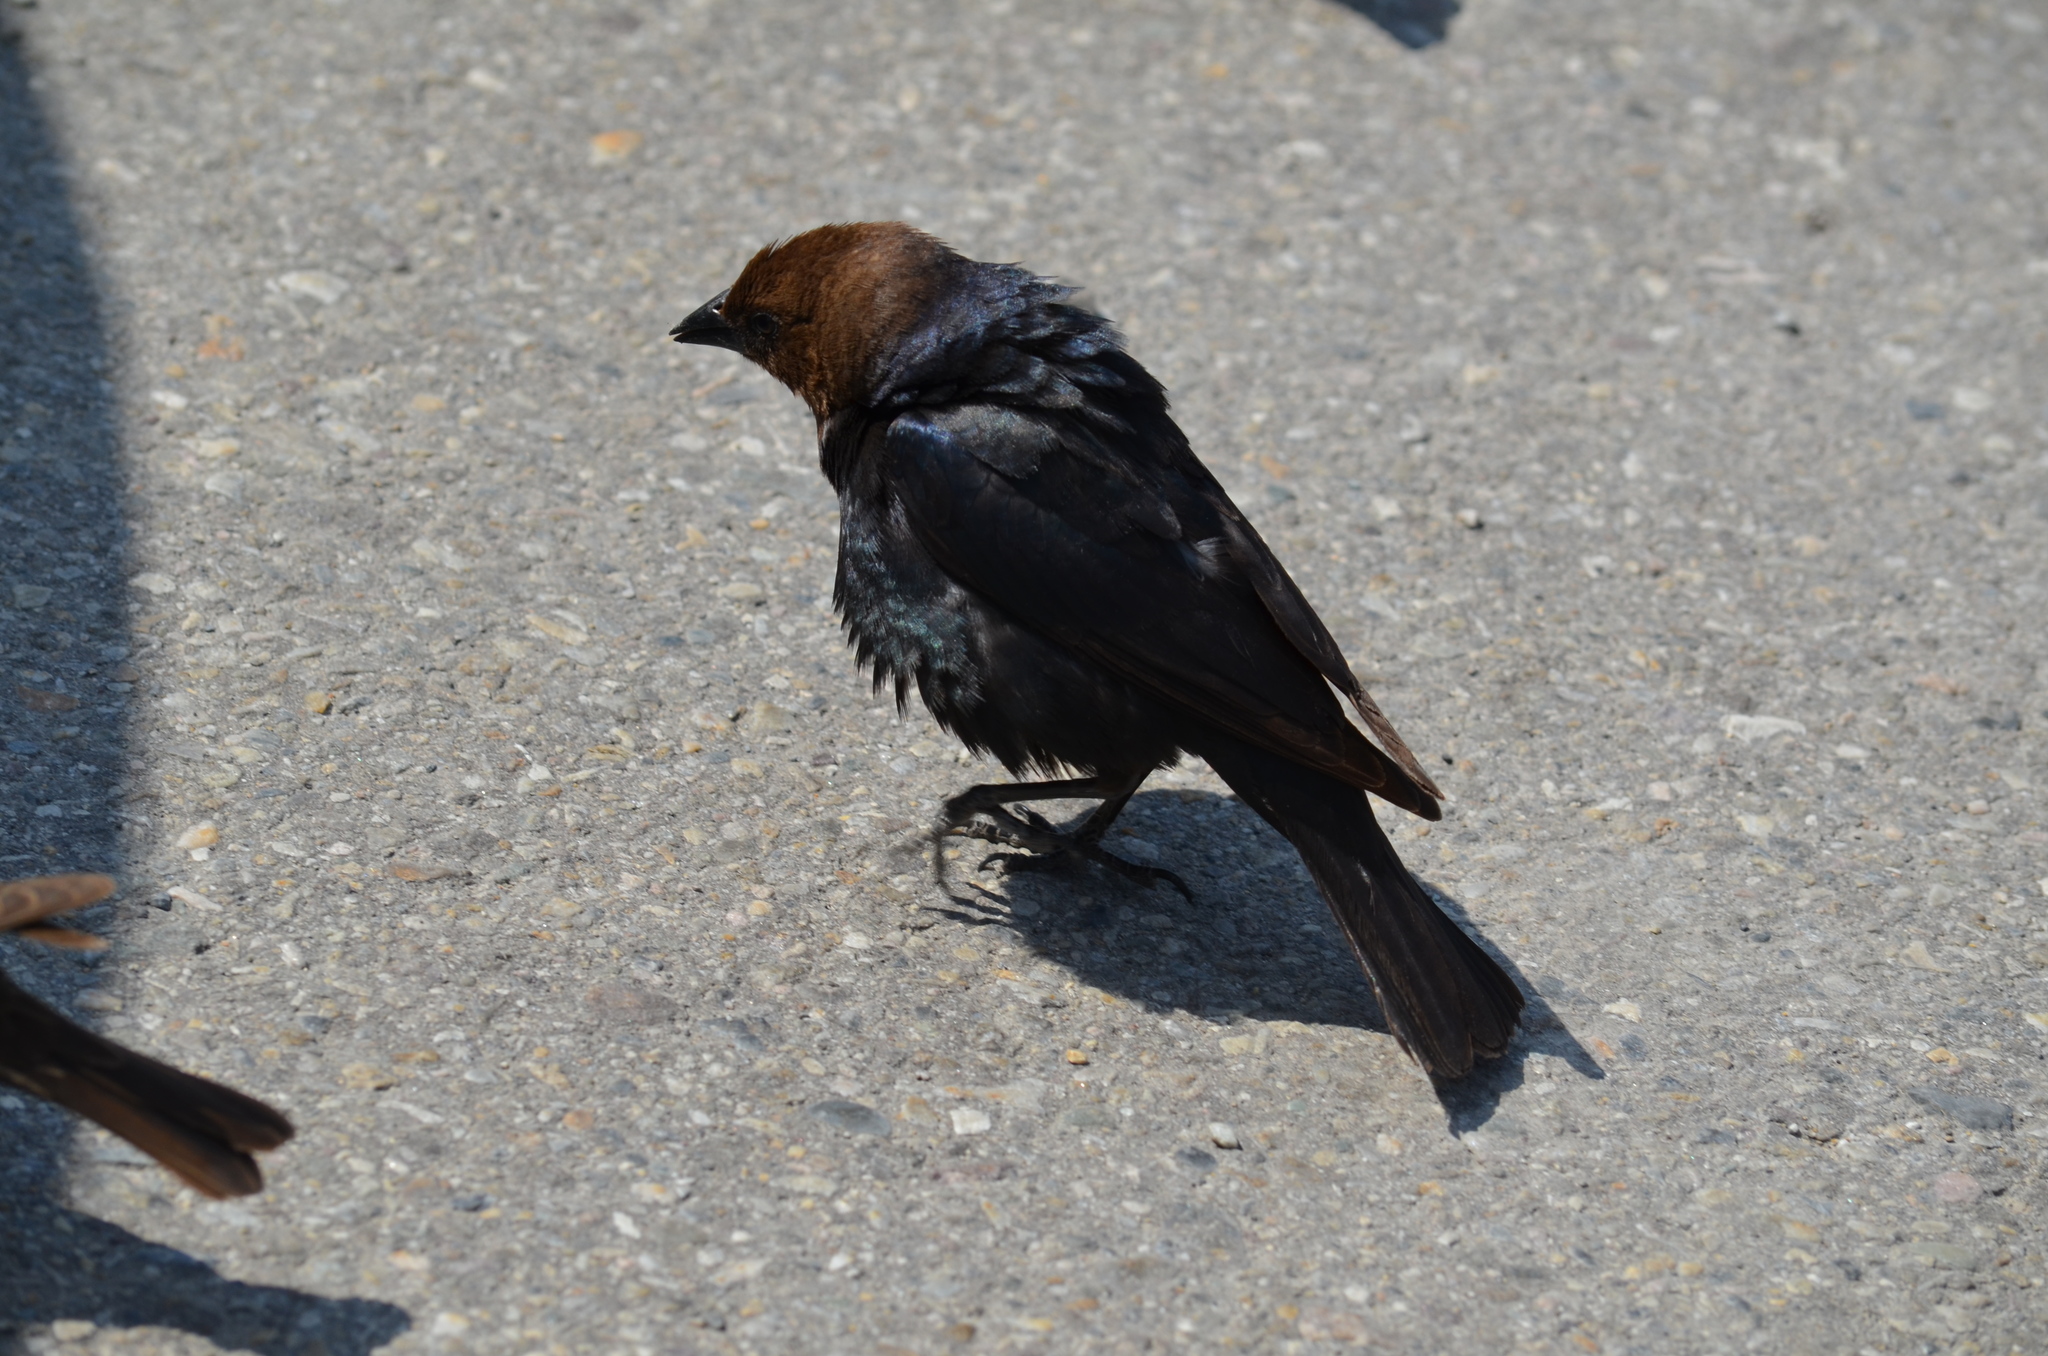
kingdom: Animalia
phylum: Chordata
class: Aves
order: Passeriformes
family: Icteridae
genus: Molothrus
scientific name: Molothrus ater
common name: Brown-headed cowbird
